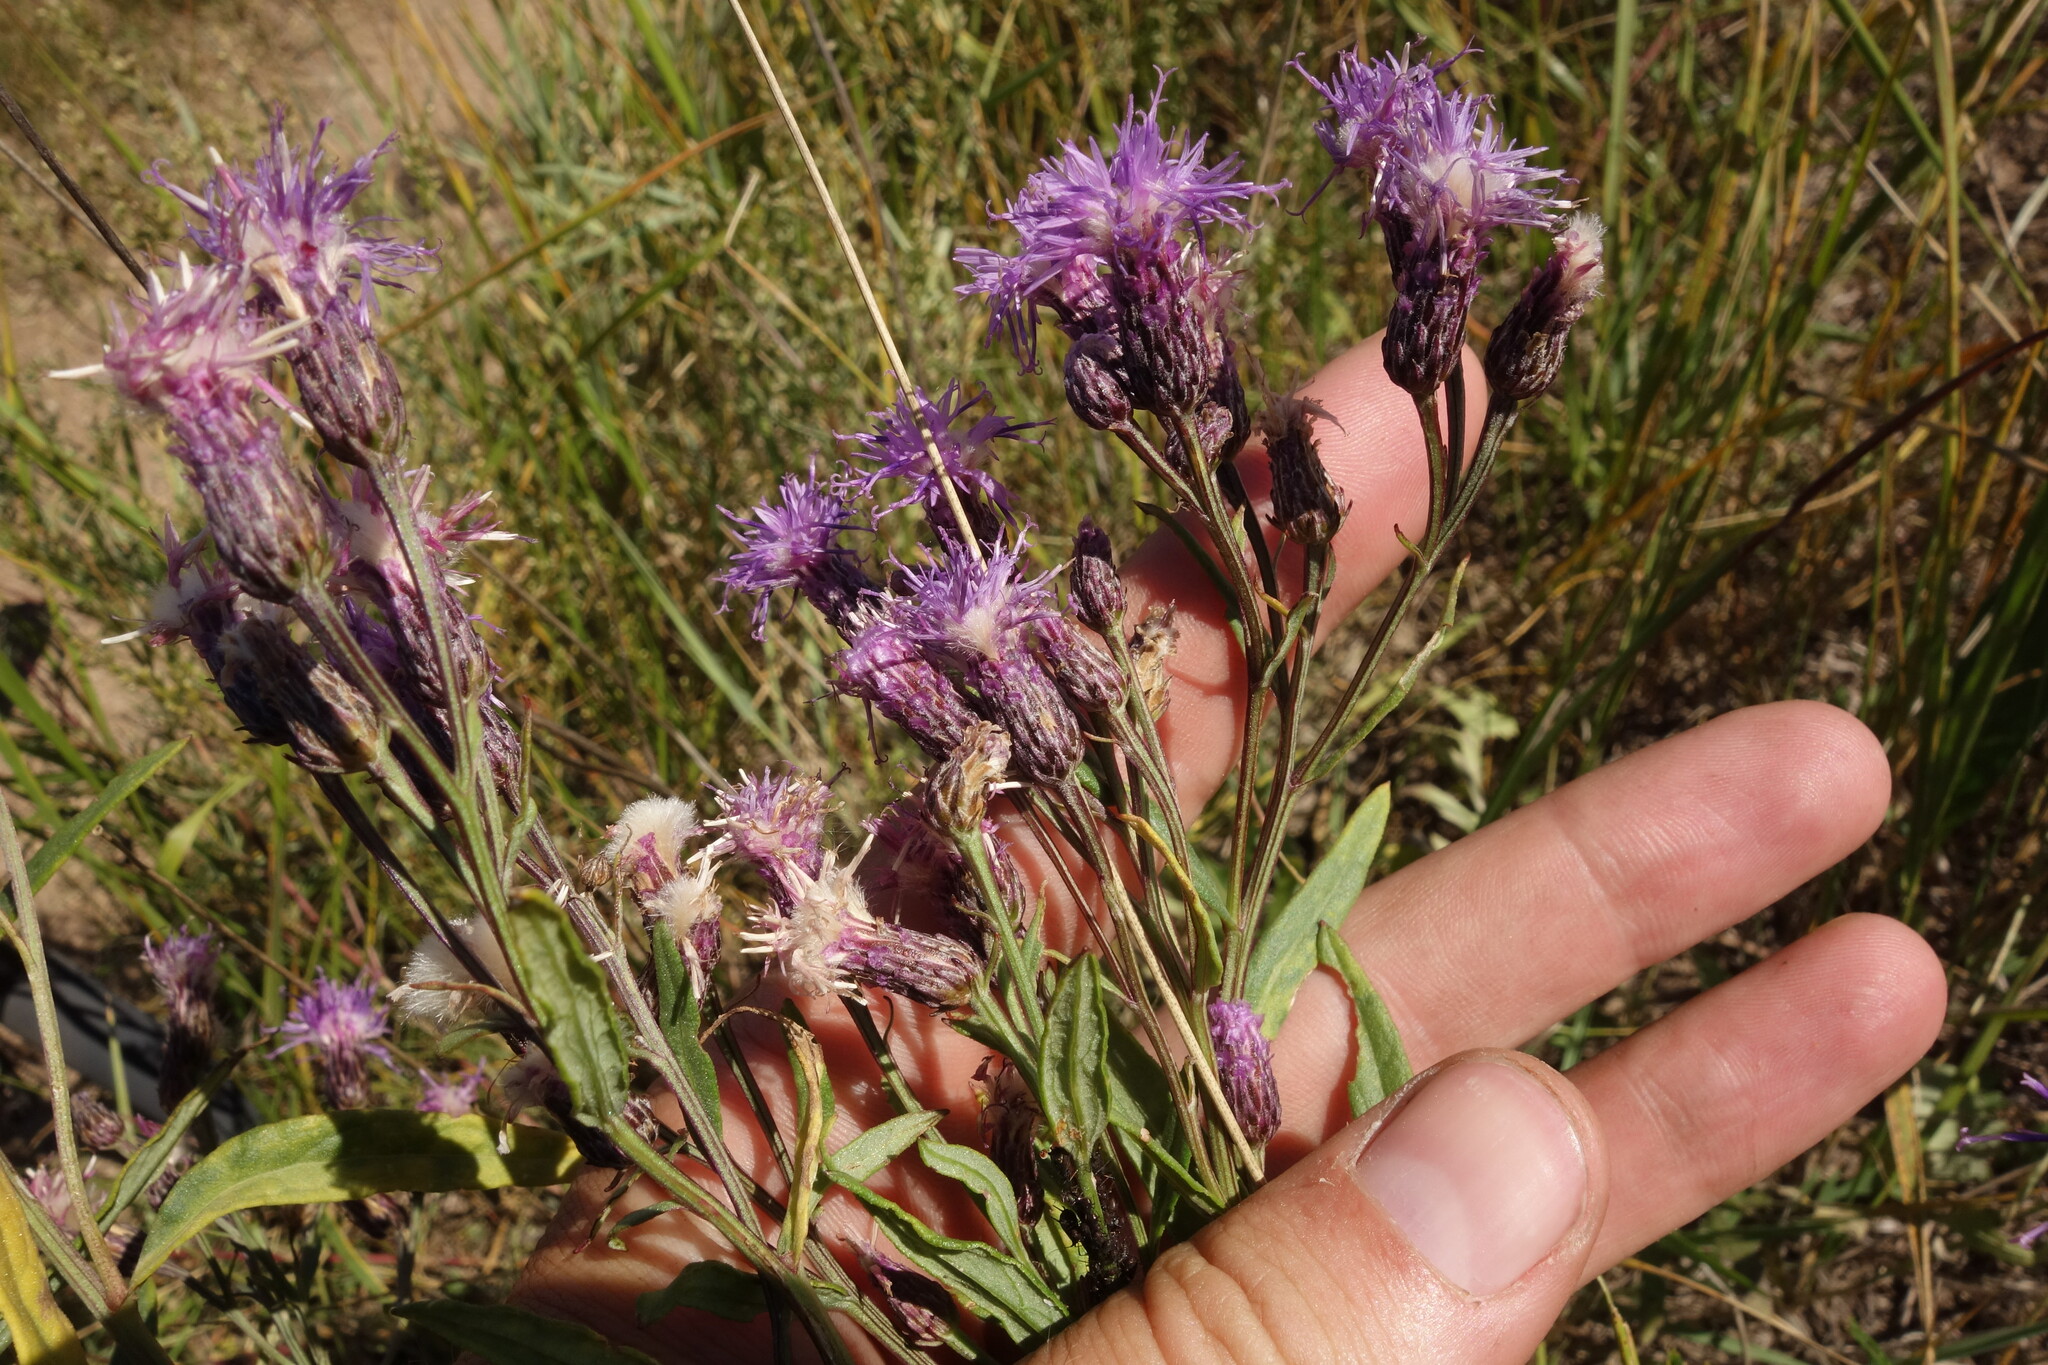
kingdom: Plantae
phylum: Tracheophyta
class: Magnoliopsida
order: Asterales
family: Asteraceae
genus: Saussurea
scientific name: Saussurea amara
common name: Alberta sawwort
